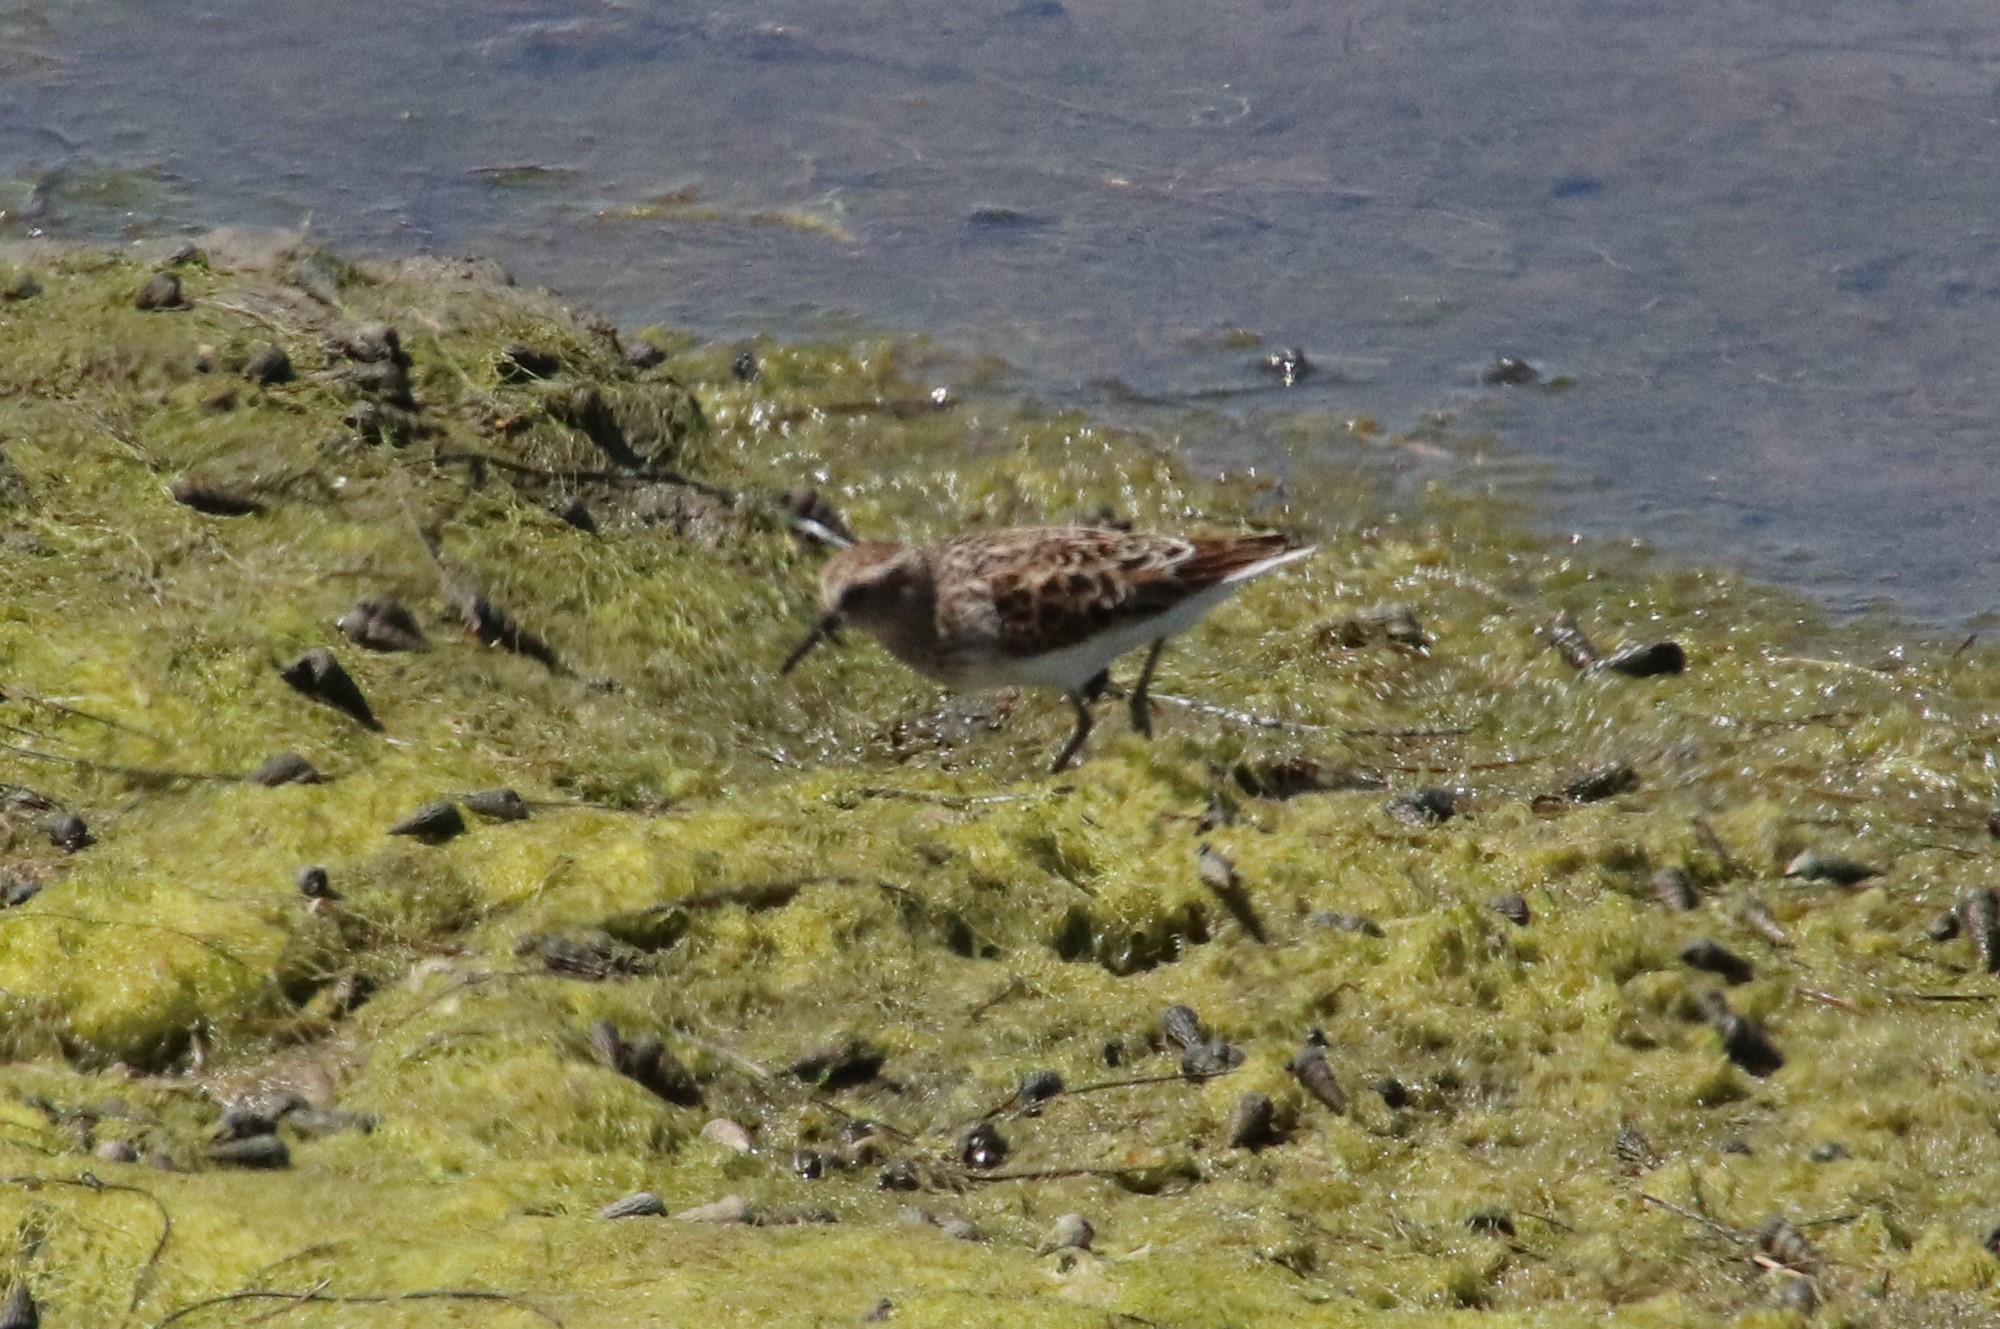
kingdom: Animalia
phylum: Chordata
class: Aves
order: Charadriiformes
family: Scolopacidae
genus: Calidris
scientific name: Calidris minutilla
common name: Least sandpiper
